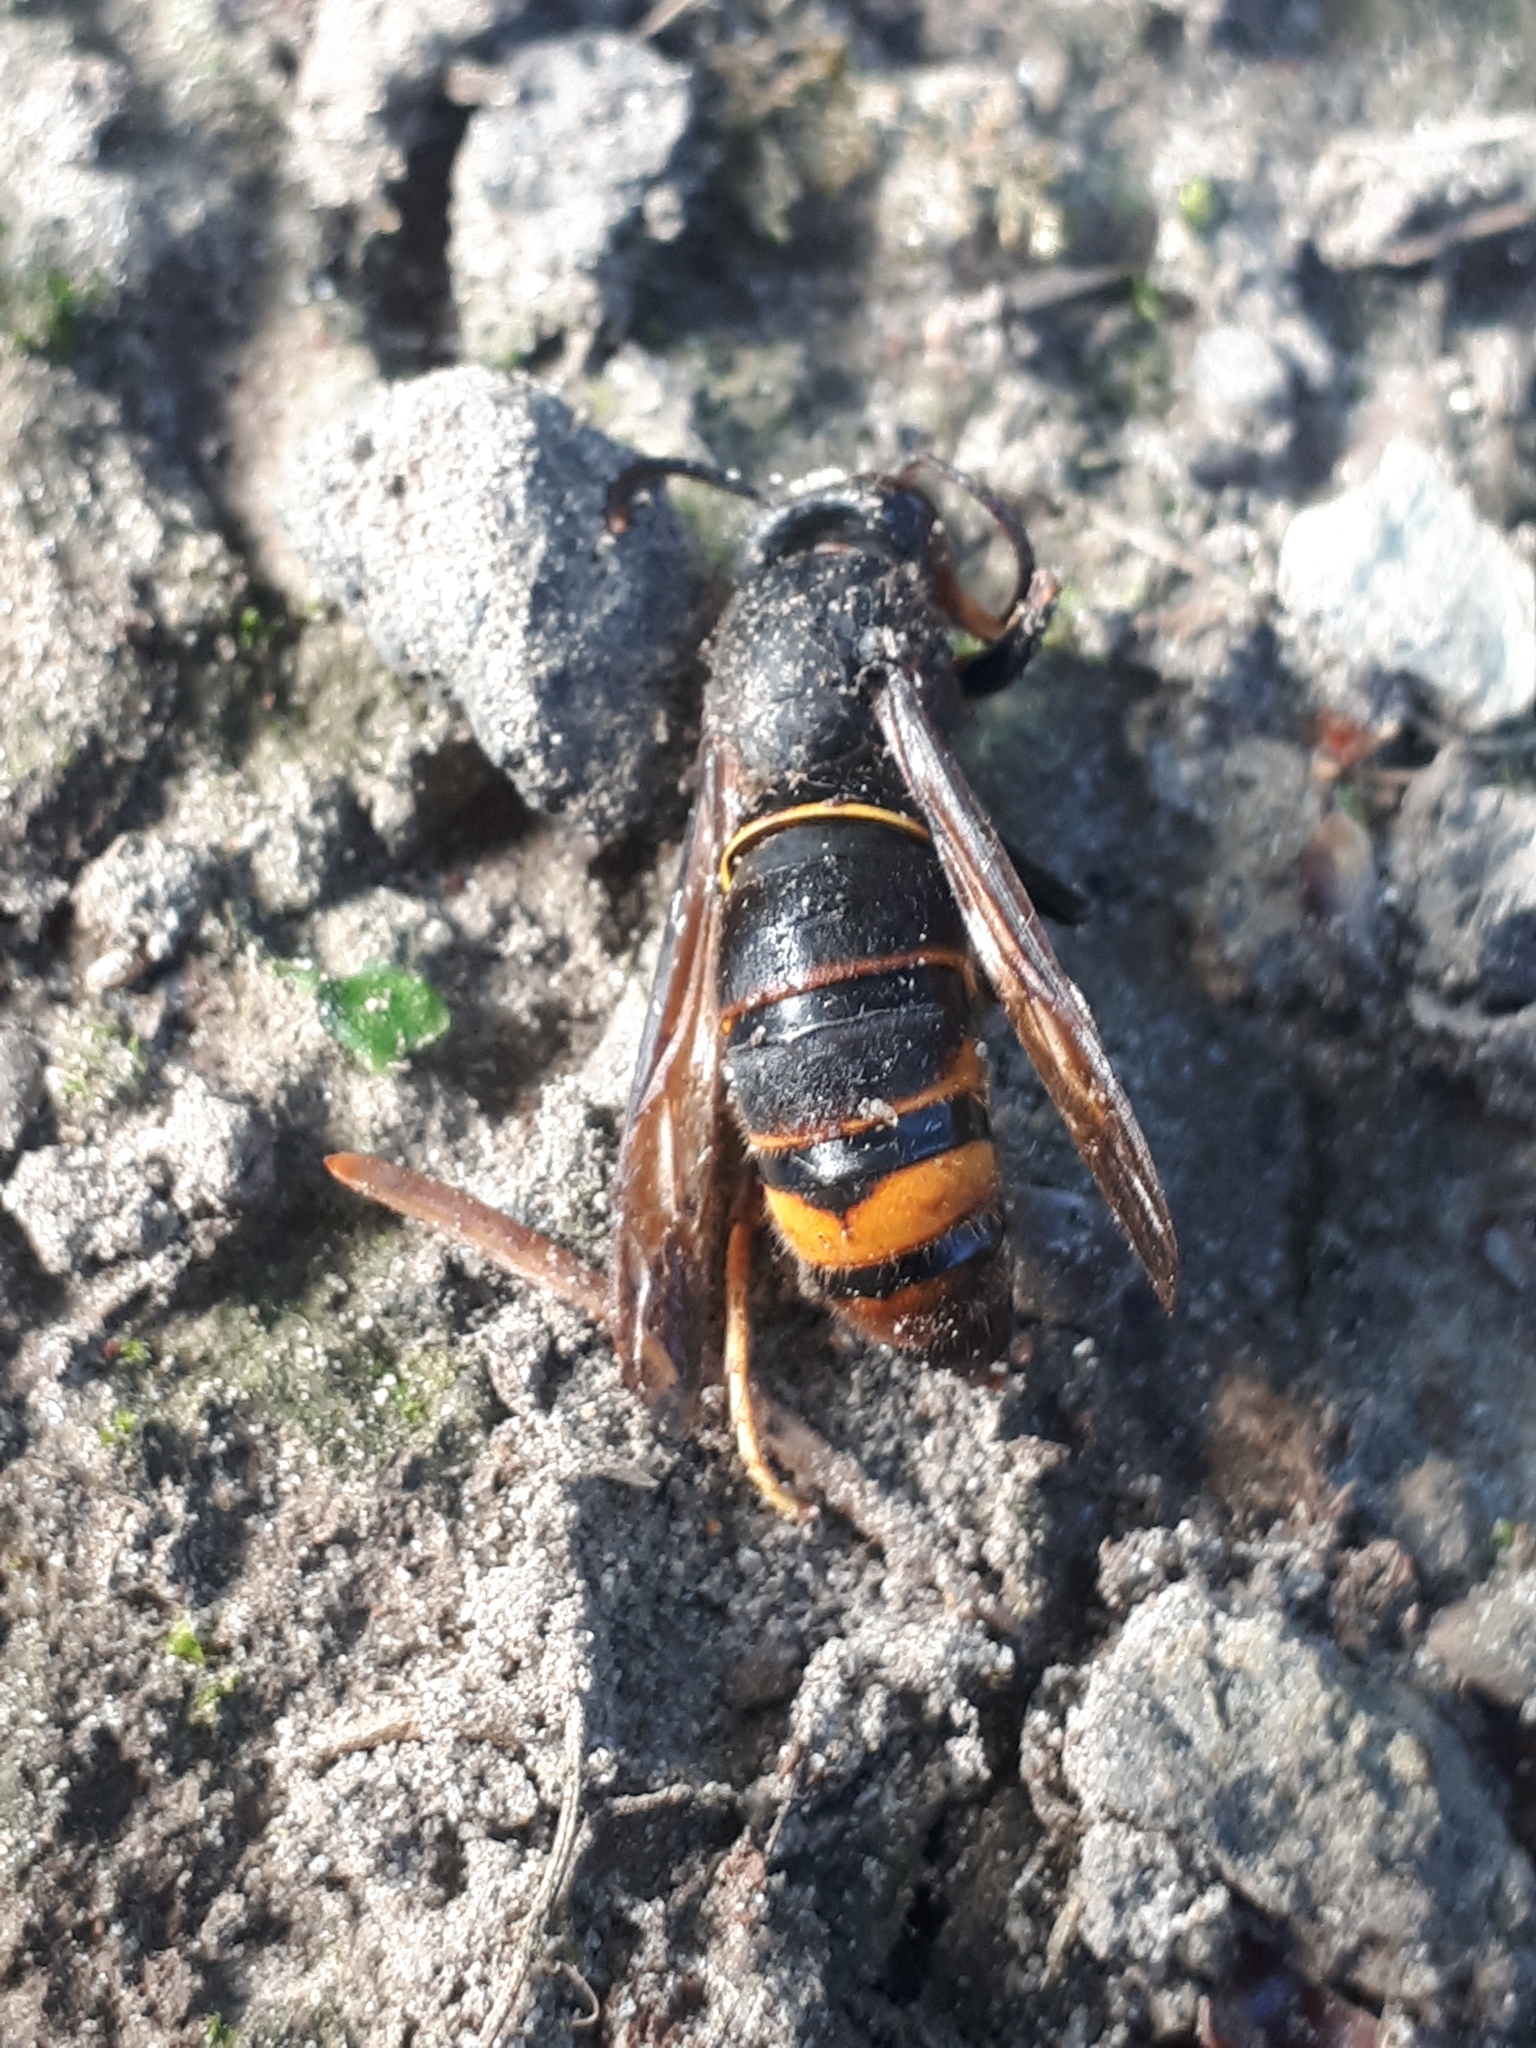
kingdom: Animalia
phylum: Arthropoda
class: Insecta
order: Hymenoptera
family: Vespidae
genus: Vespa
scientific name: Vespa velutina
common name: Asian hornet
